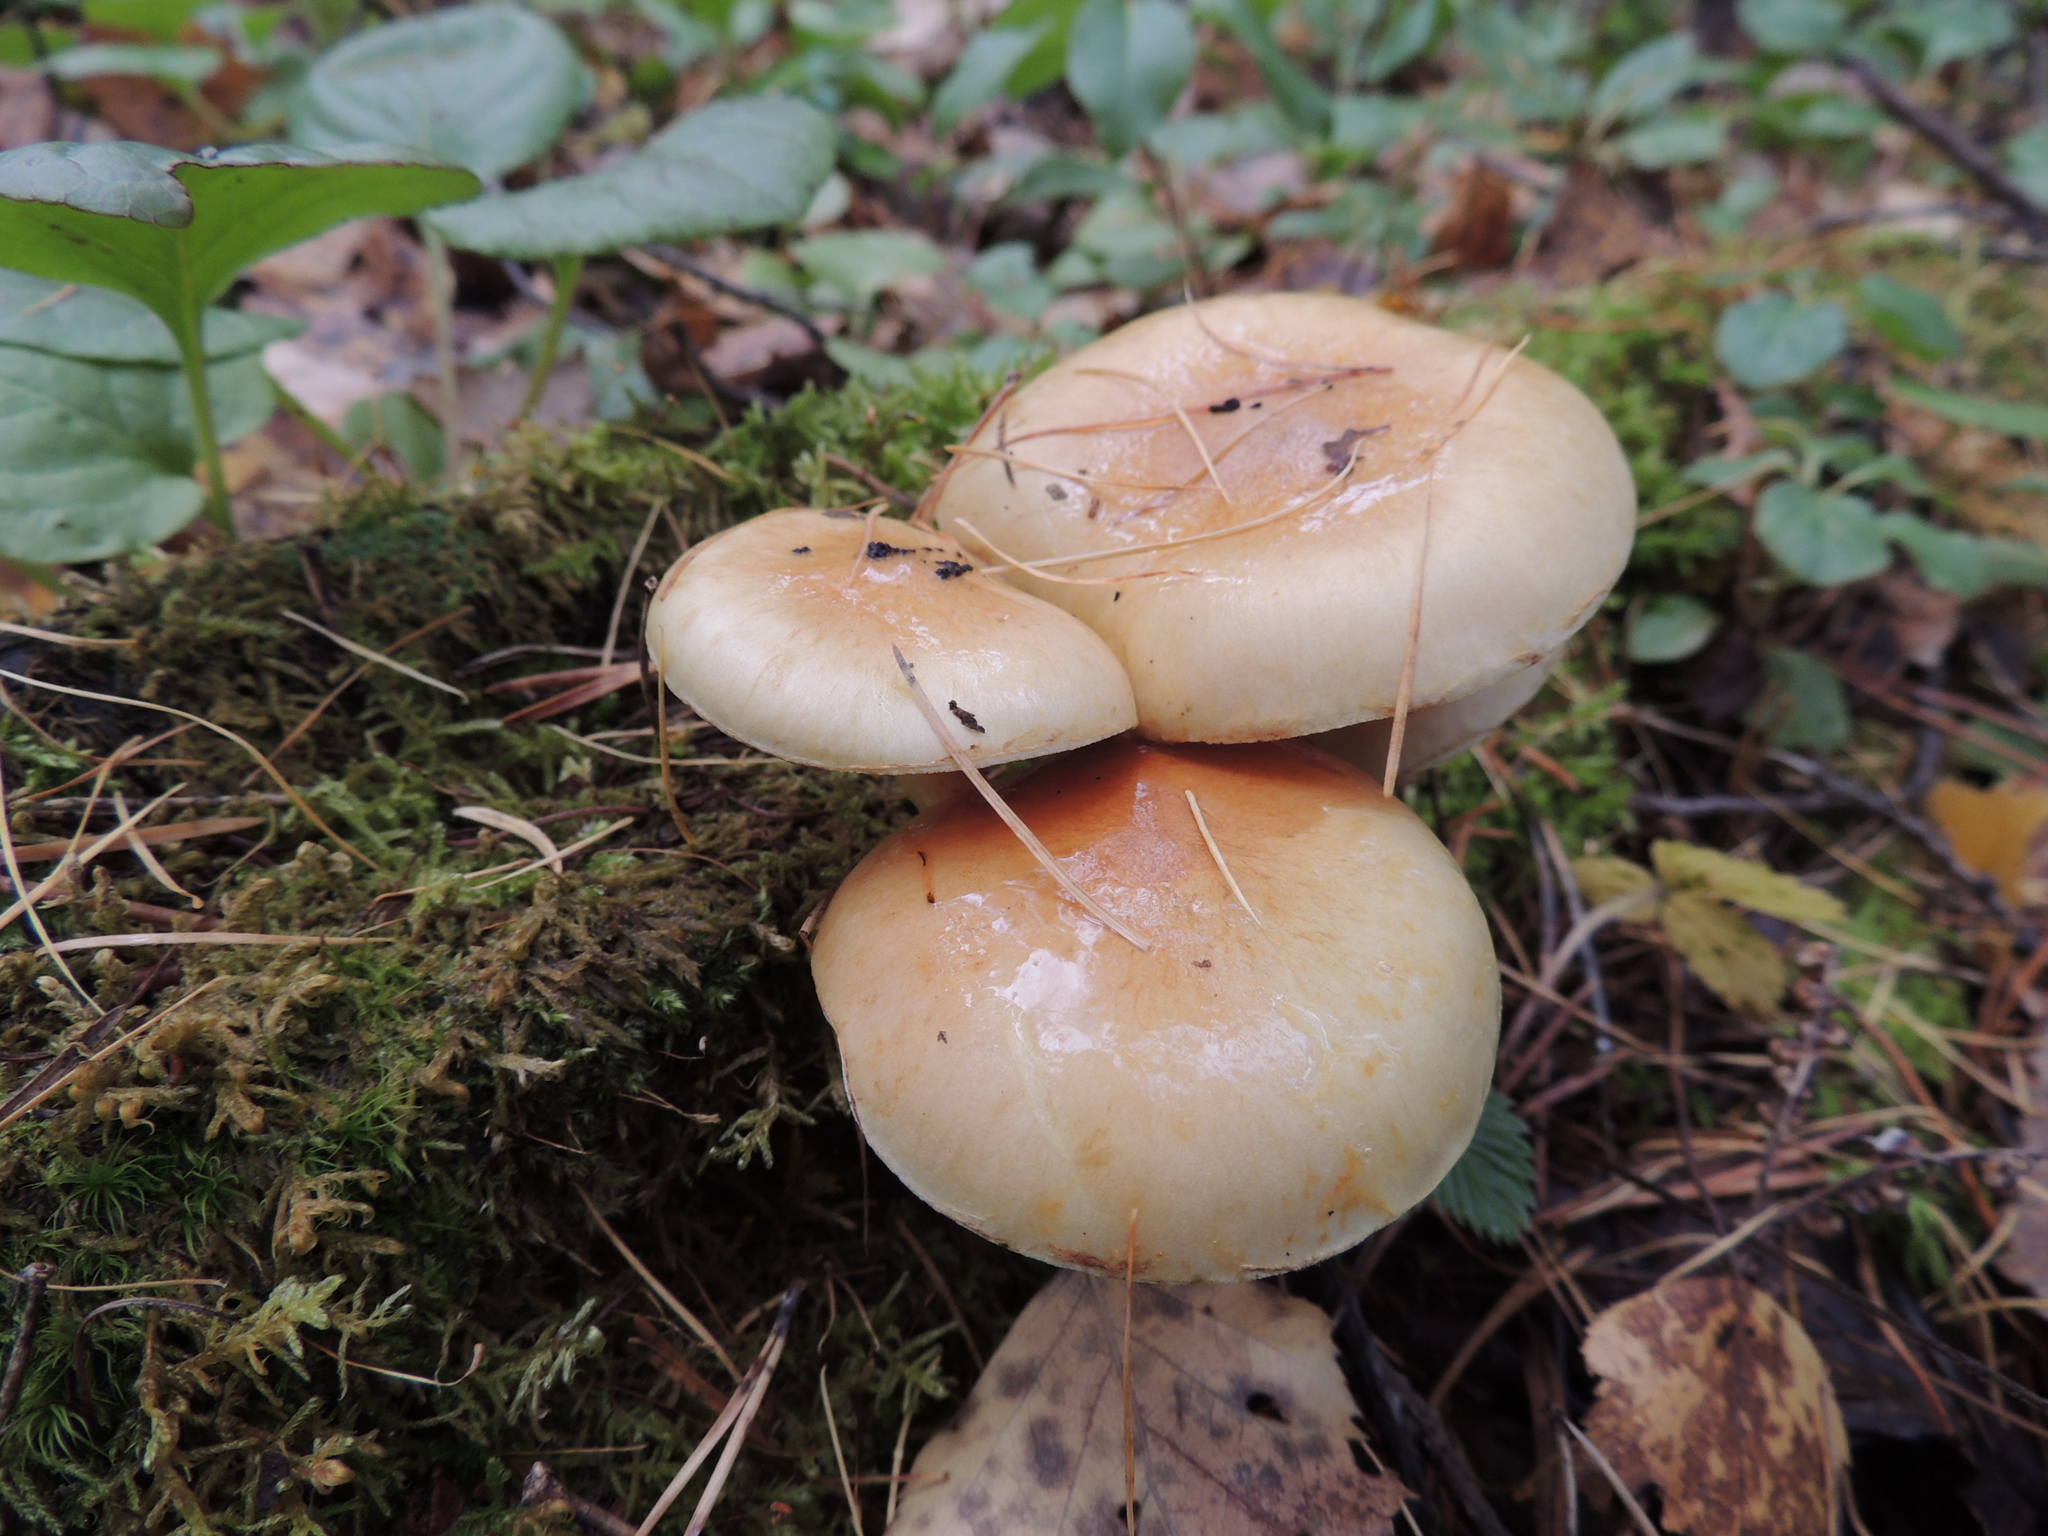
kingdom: Fungi
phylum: Basidiomycota
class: Agaricomycetes
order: Agaricales
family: Strophariaceae
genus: Hypholoma
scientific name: Hypholoma capnoides
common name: Conifer tuft
